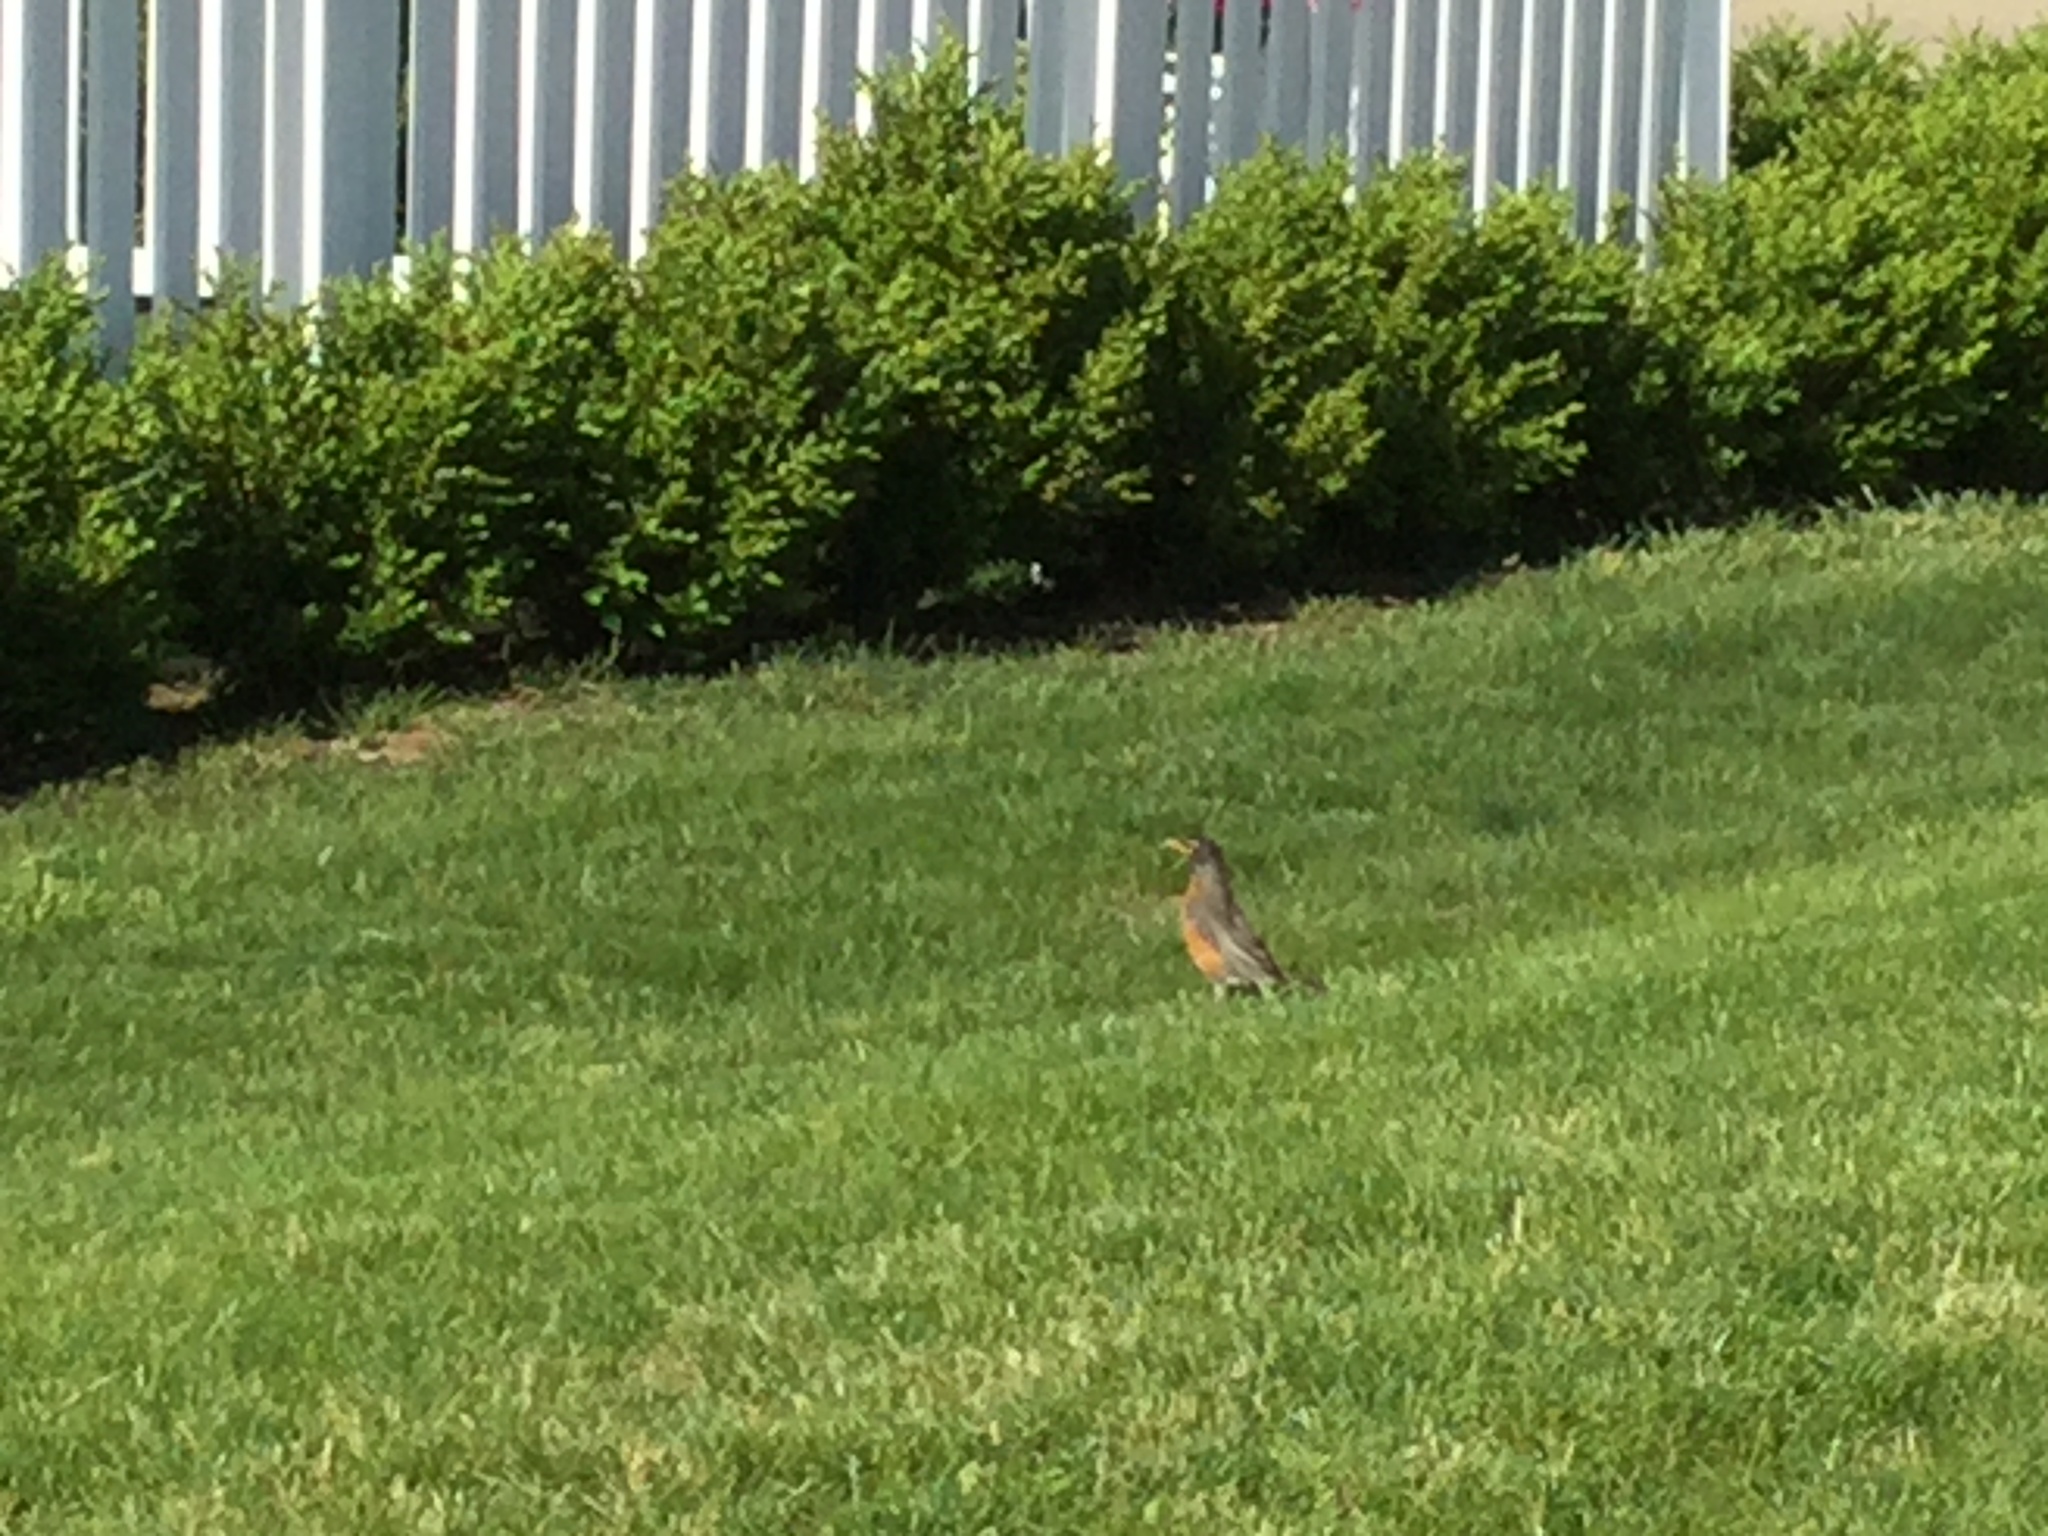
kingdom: Animalia
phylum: Chordata
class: Aves
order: Passeriformes
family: Turdidae
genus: Turdus
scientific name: Turdus migratorius
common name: American robin
